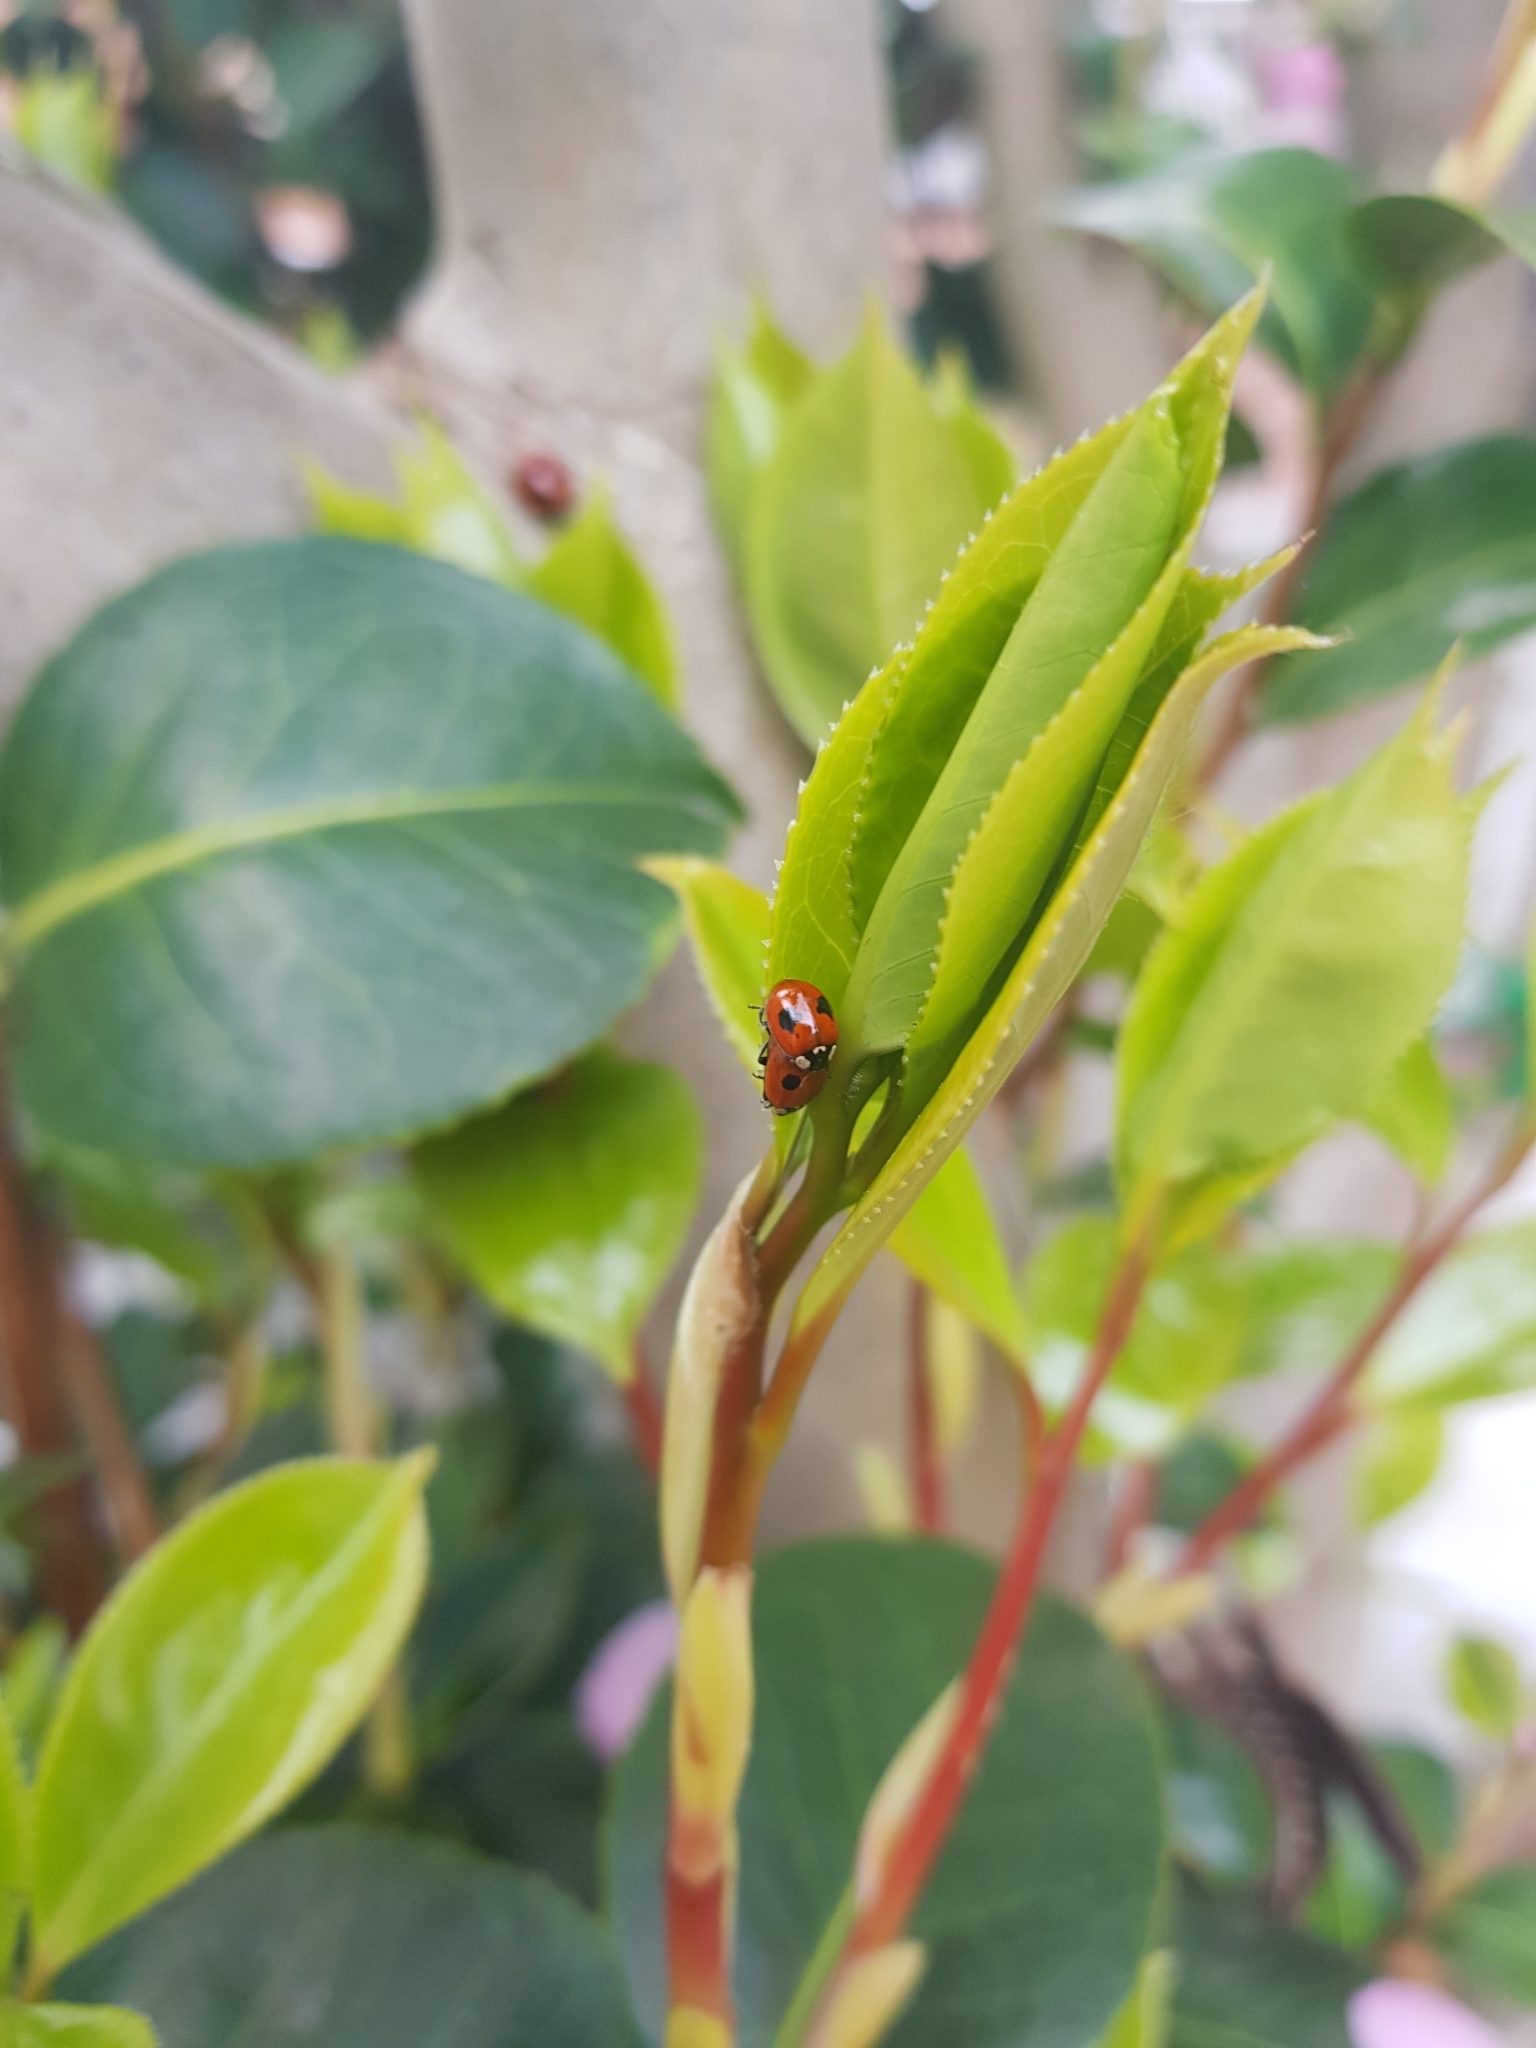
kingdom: Animalia
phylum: Arthropoda
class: Insecta
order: Coleoptera
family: Coccinellidae
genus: Adalia
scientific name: Adalia bipunctata
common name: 2-spot ladybird
